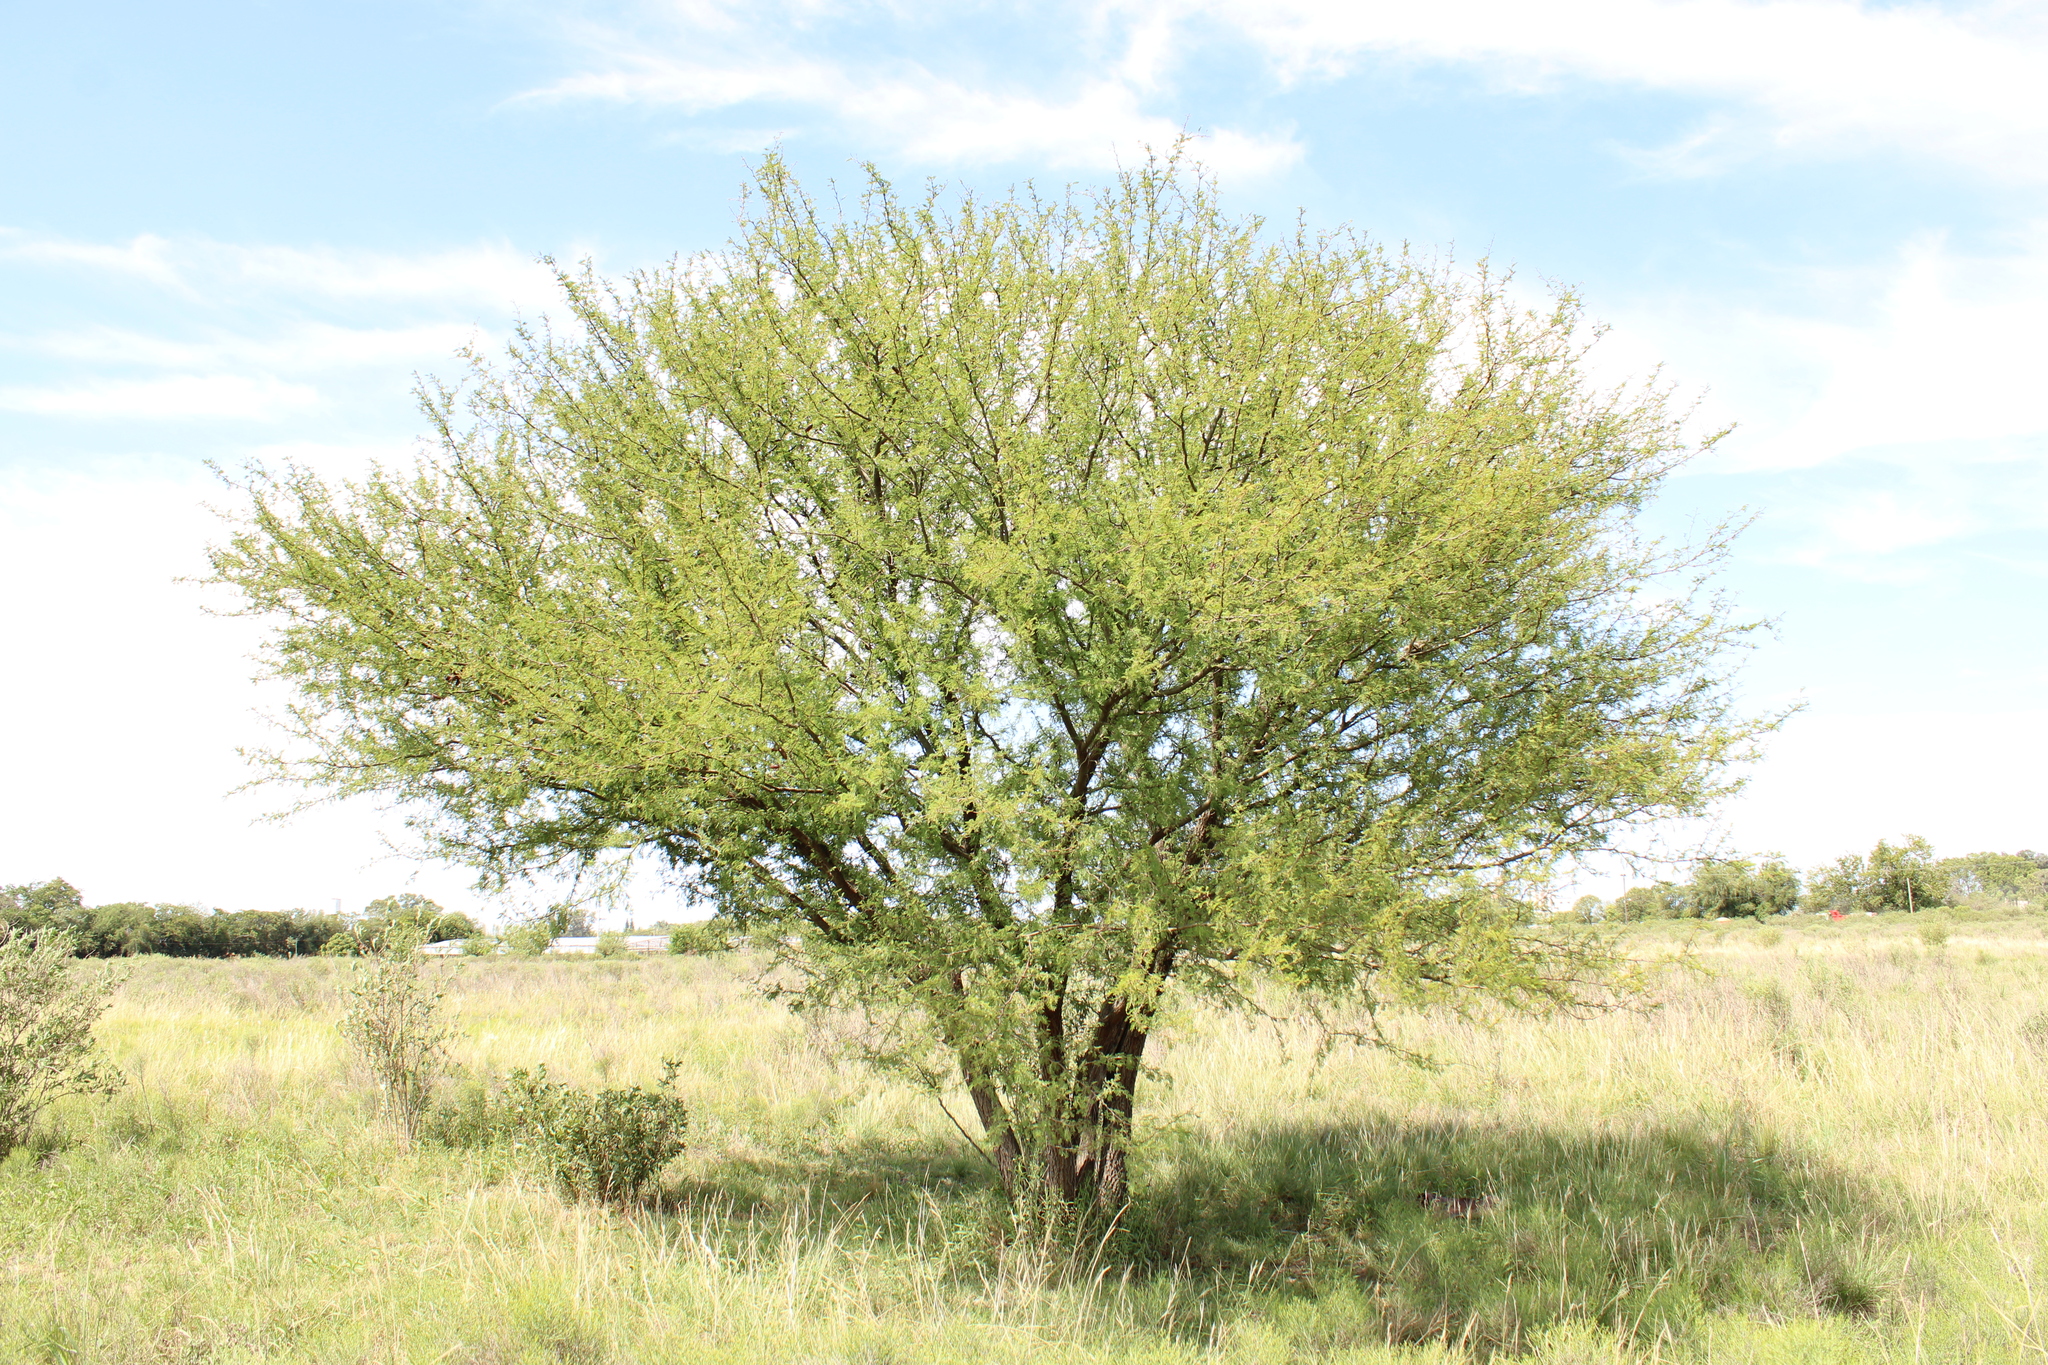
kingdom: Plantae
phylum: Tracheophyta
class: Magnoliopsida
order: Fabales
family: Fabaceae
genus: Vachellia
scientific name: Vachellia caven
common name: Roman cassie
